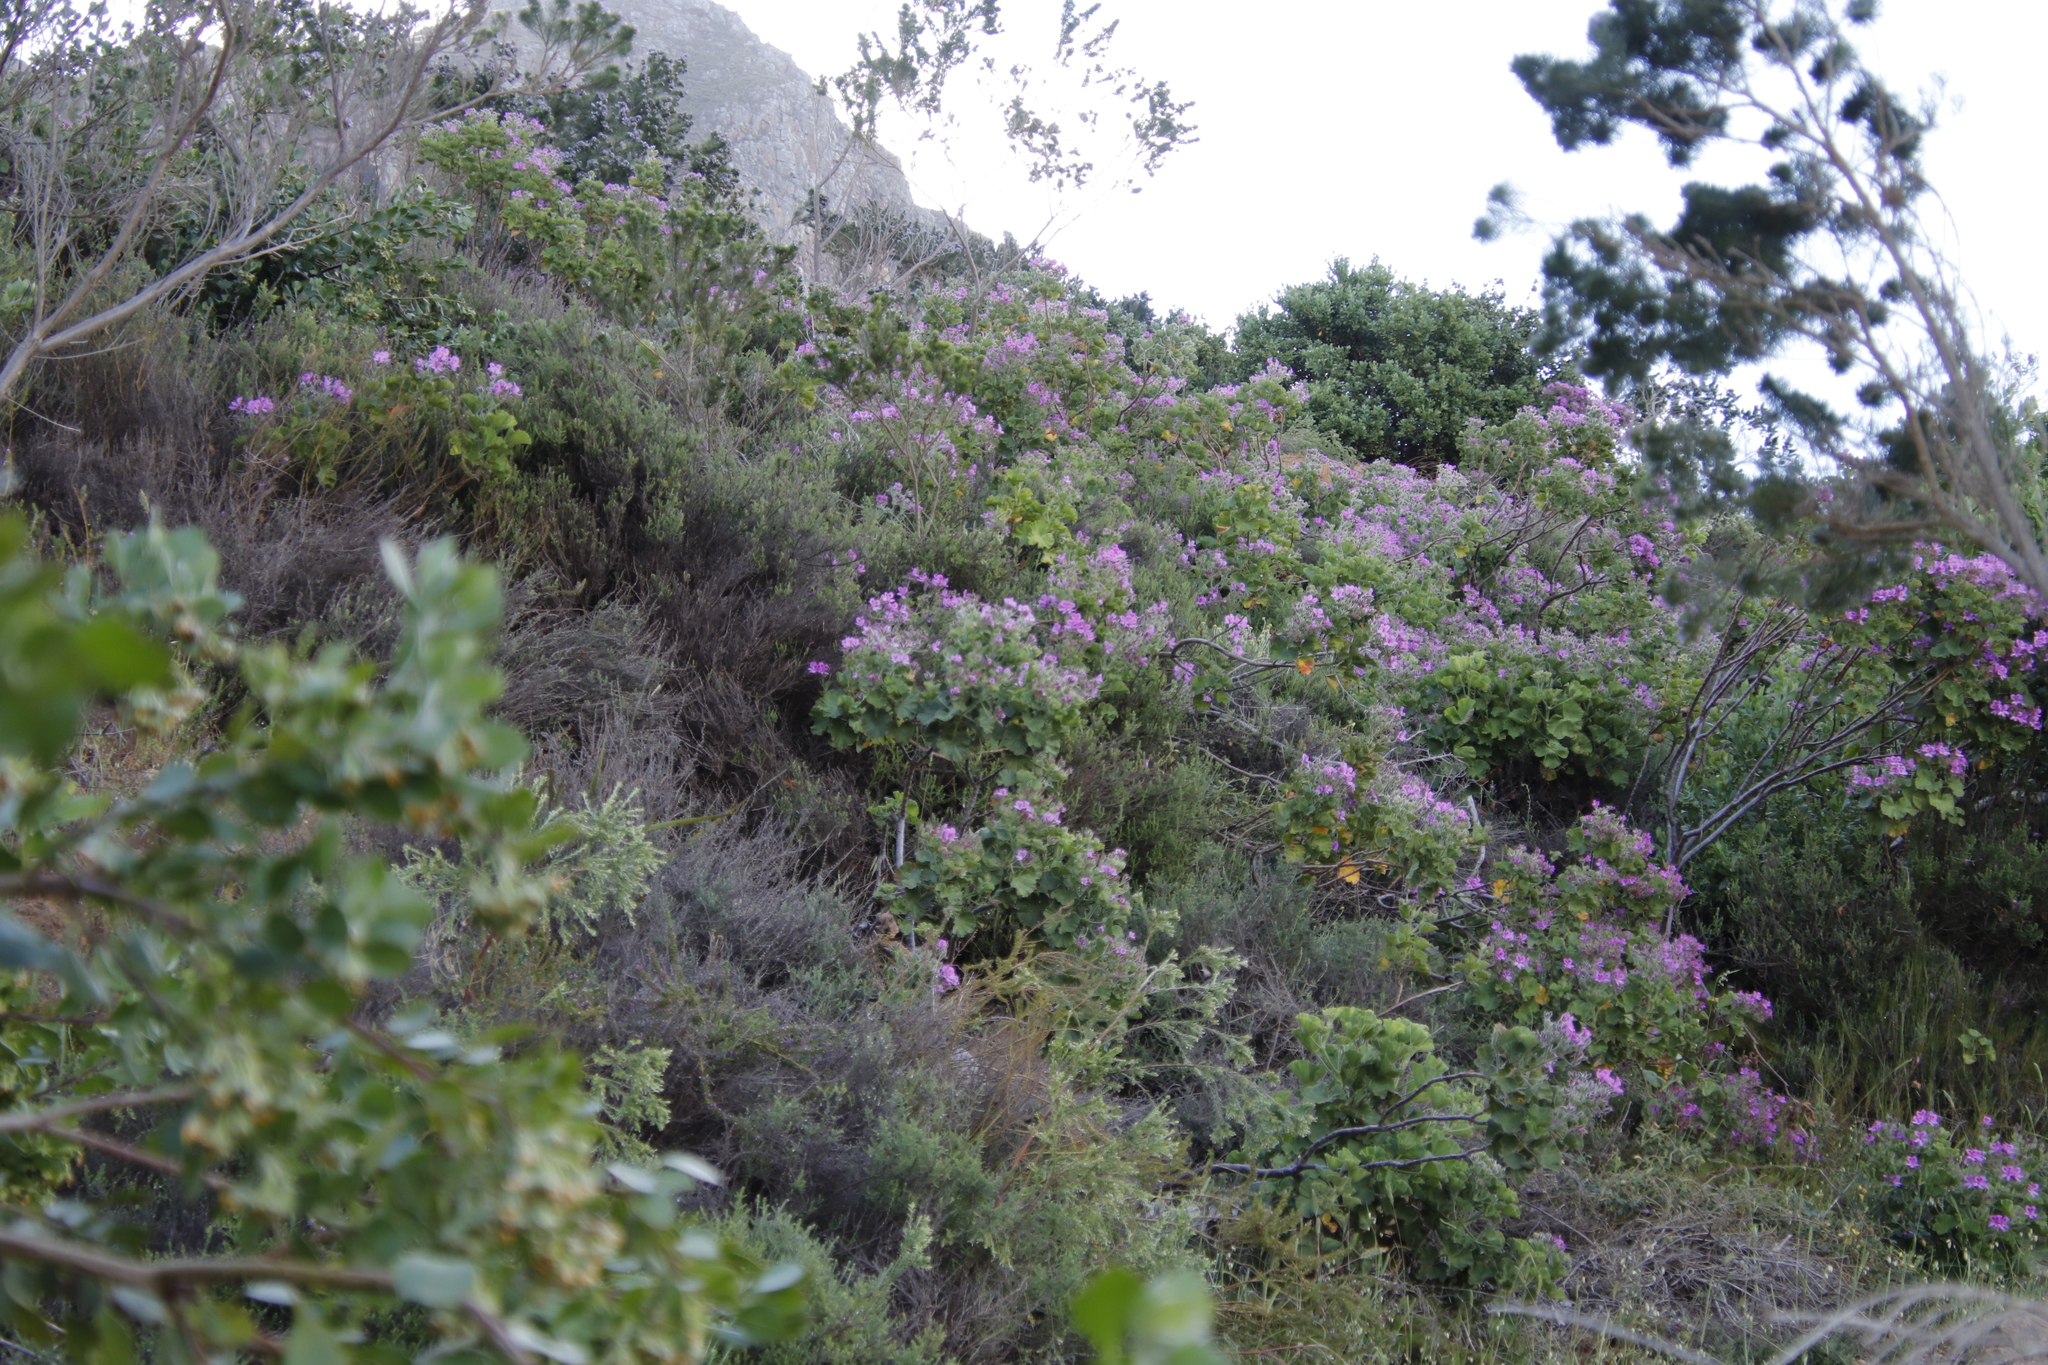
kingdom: Plantae
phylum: Tracheophyta
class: Magnoliopsida
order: Geraniales
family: Geraniaceae
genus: Pelargonium
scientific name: Pelargonium cucullatum
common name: Tree pelargonium
